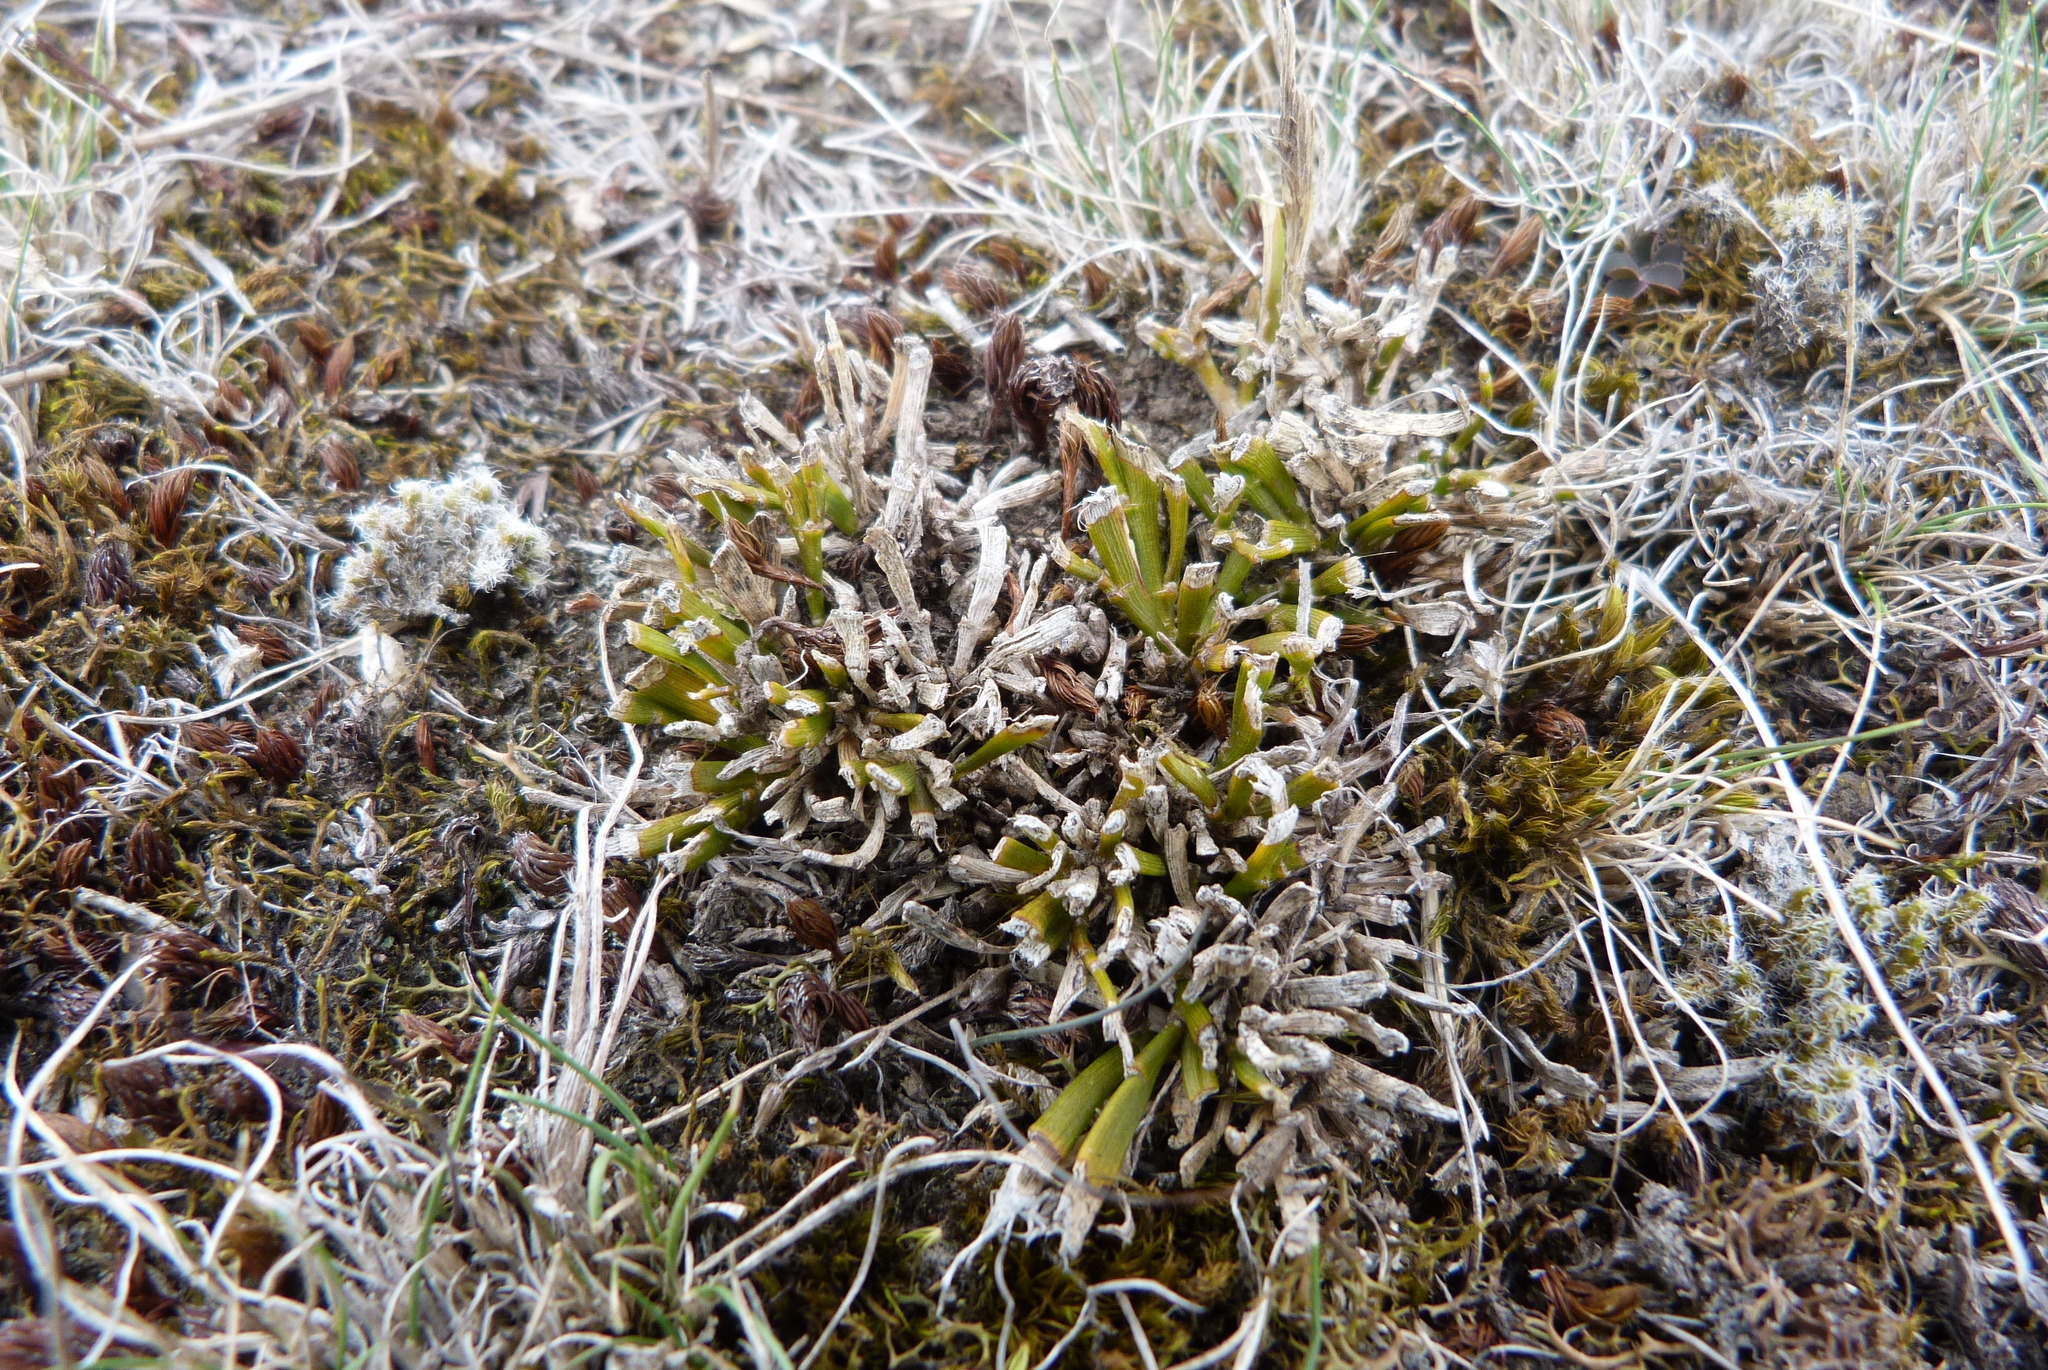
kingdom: Plantae
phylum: Tracheophyta
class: Magnoliopsida
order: Fabales
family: Fabaceae
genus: Carmichaelia
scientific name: Carmichaelia corrugata
